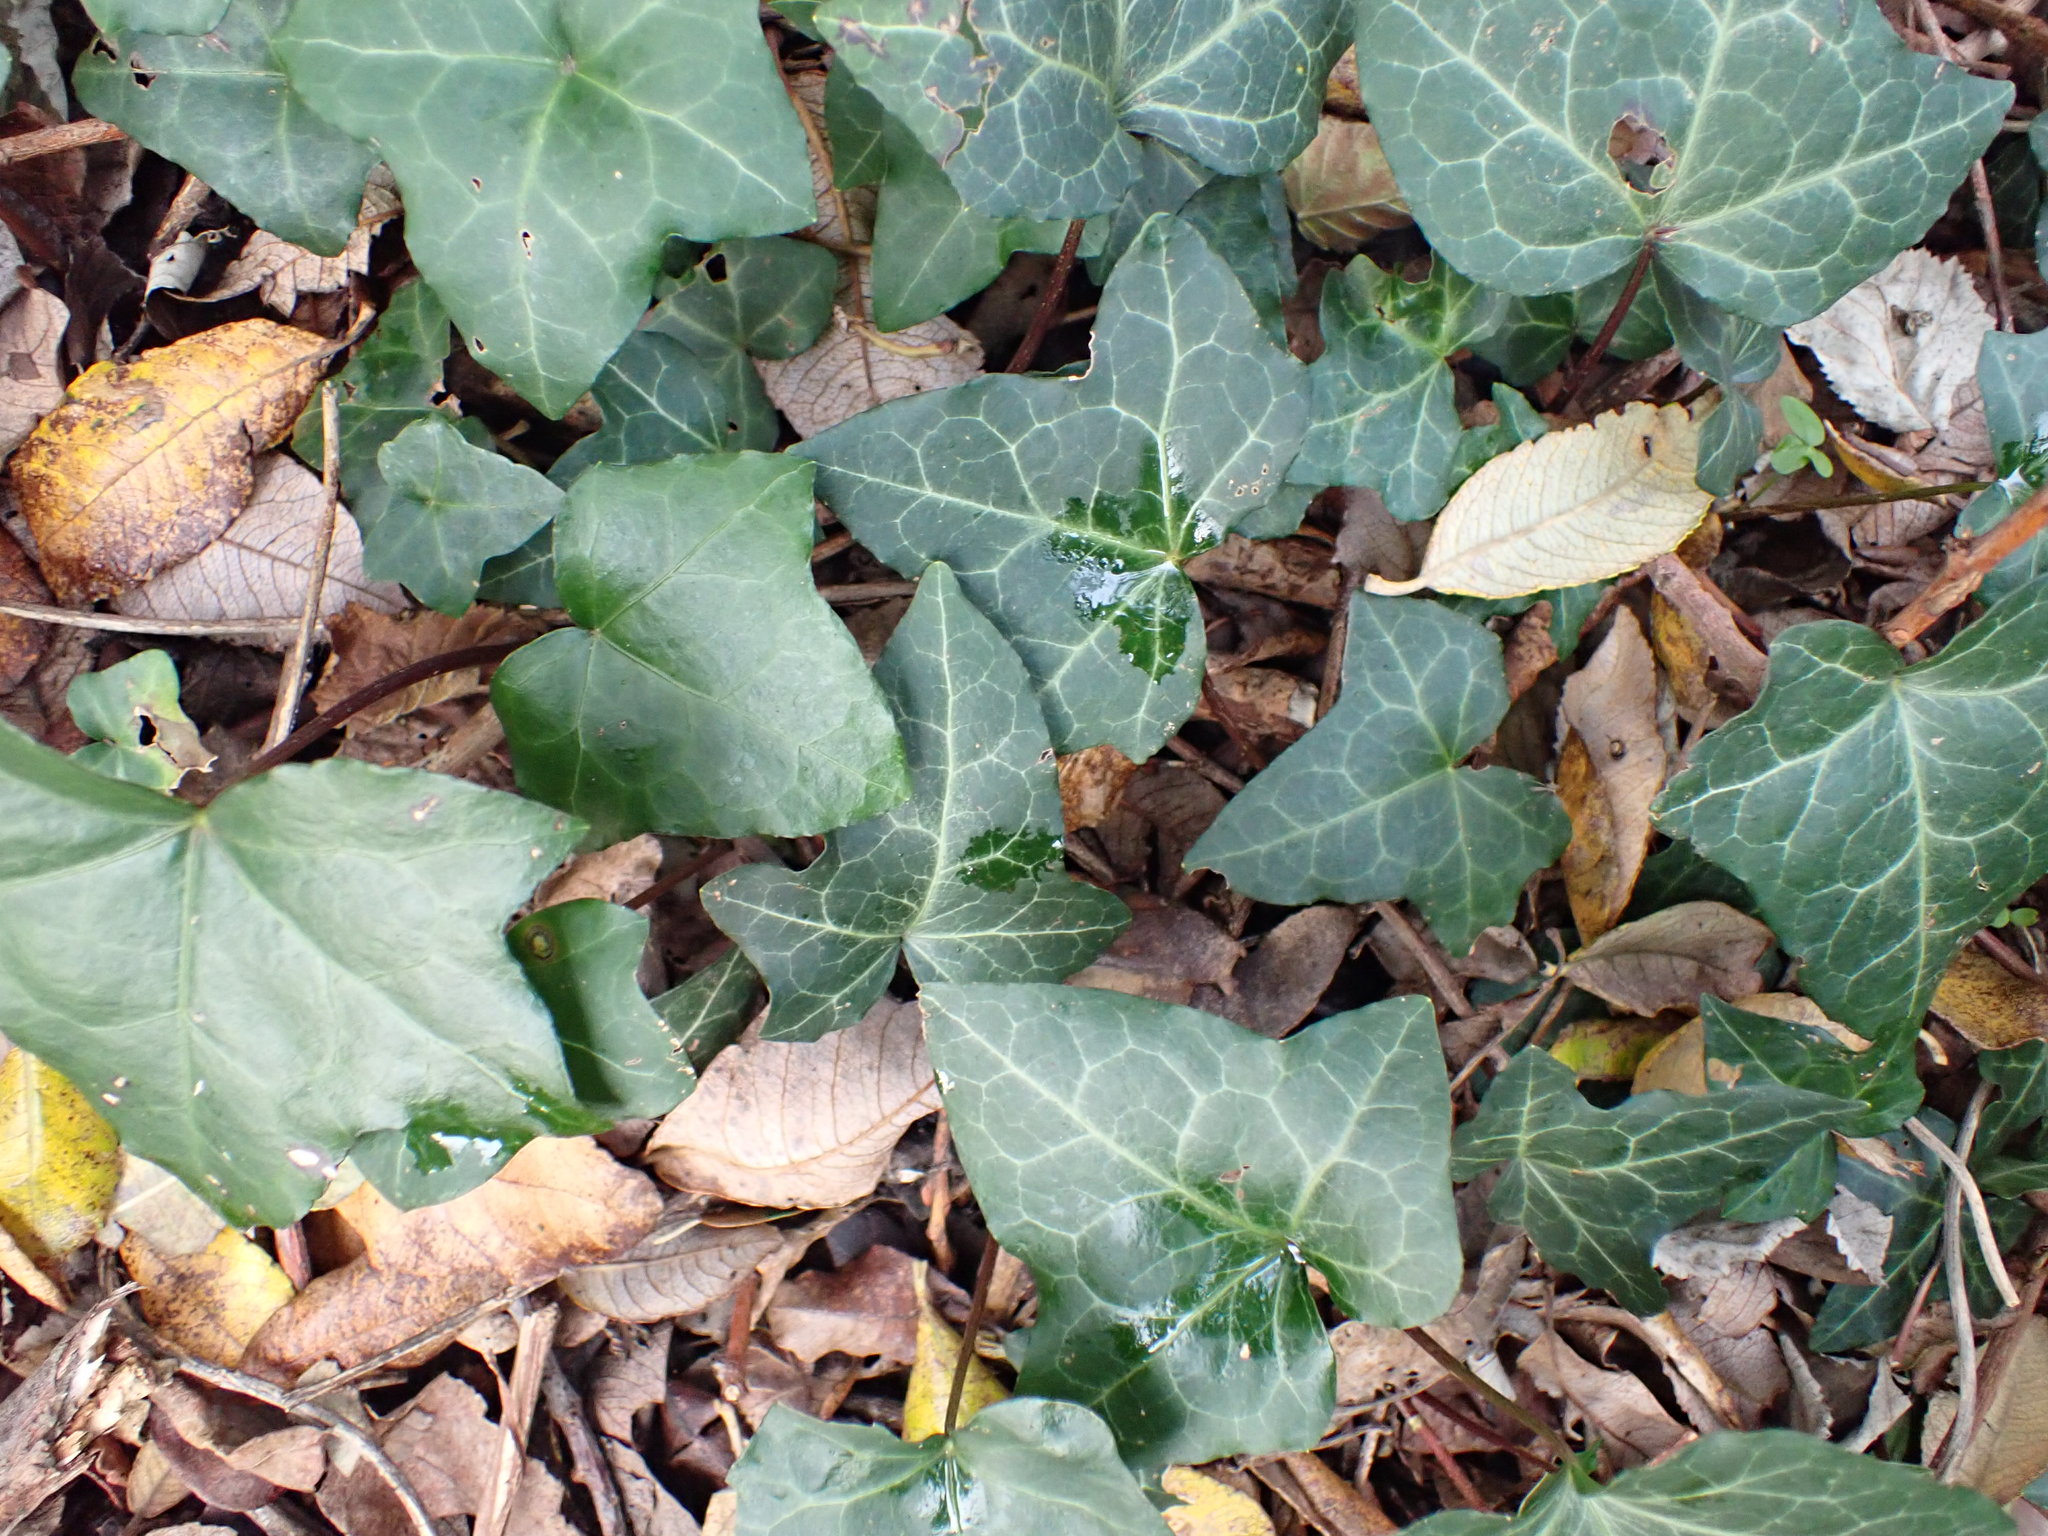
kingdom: Plantae
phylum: Tracheophyta
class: Magnoliopsida
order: Apiales
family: Araliaceae
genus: Hedera
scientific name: Hedera helix
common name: Ivy
